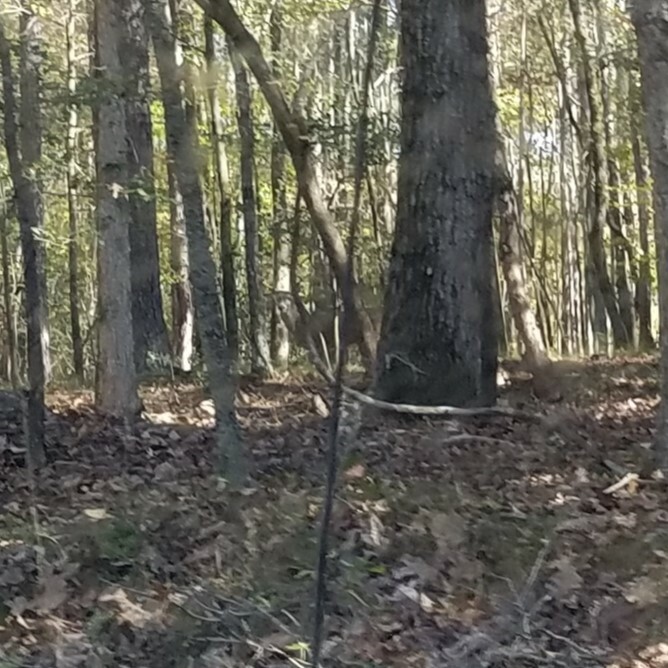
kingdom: Animalia
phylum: Chordata
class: Mammalia
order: Artiodactyla
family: Cervidae
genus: Odocoileus
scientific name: Odocoileus virginianus
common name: White-tailed deer
